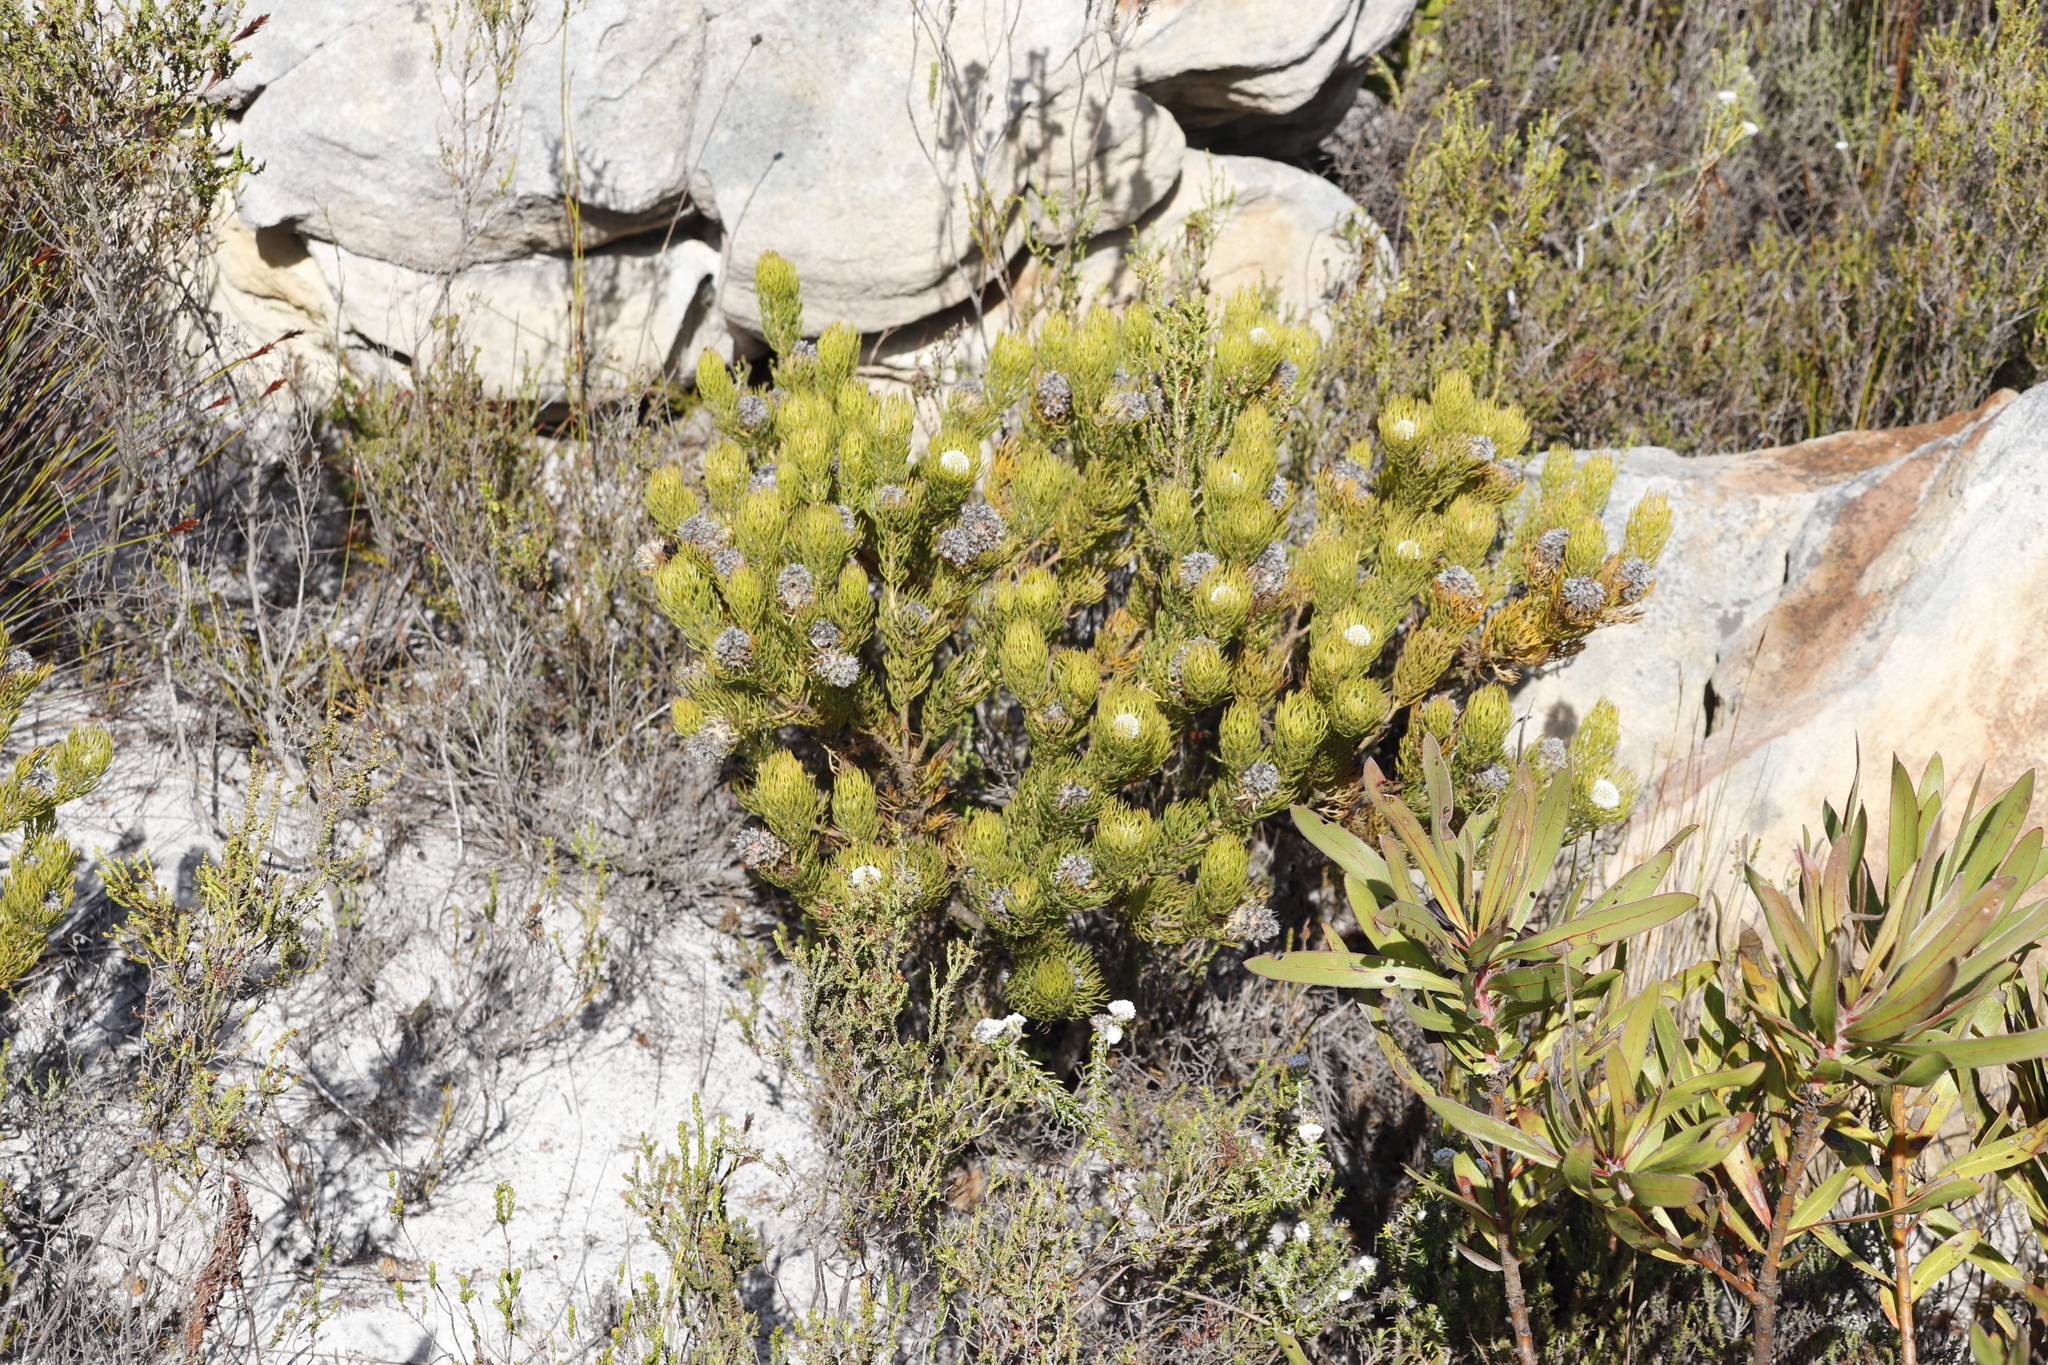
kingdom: Plantae
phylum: Tracheophyta
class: Magnoliopsida
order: Proteales
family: Proteaceae
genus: Serruria
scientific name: Serruria villosa
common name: Golden spiderhead
